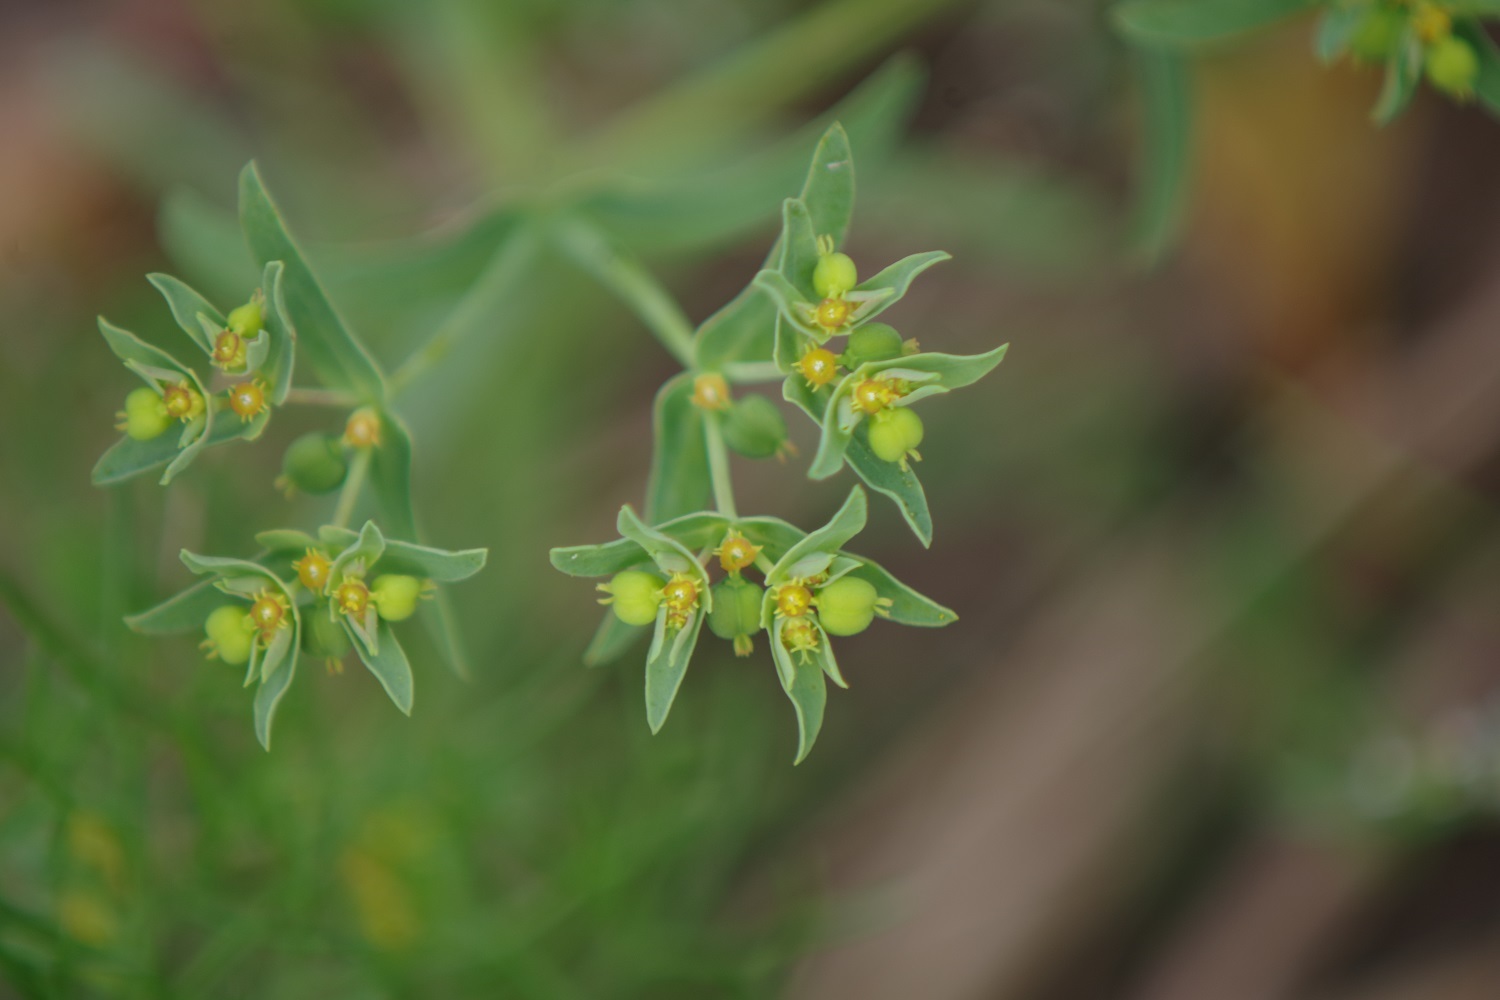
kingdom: Plantae
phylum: Tracheophyta
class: Magnoliopsida
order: Malpighiales
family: Euphorbiaceae
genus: Euphorbia
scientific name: Euphorbia exigua
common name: Dwarf spurge
